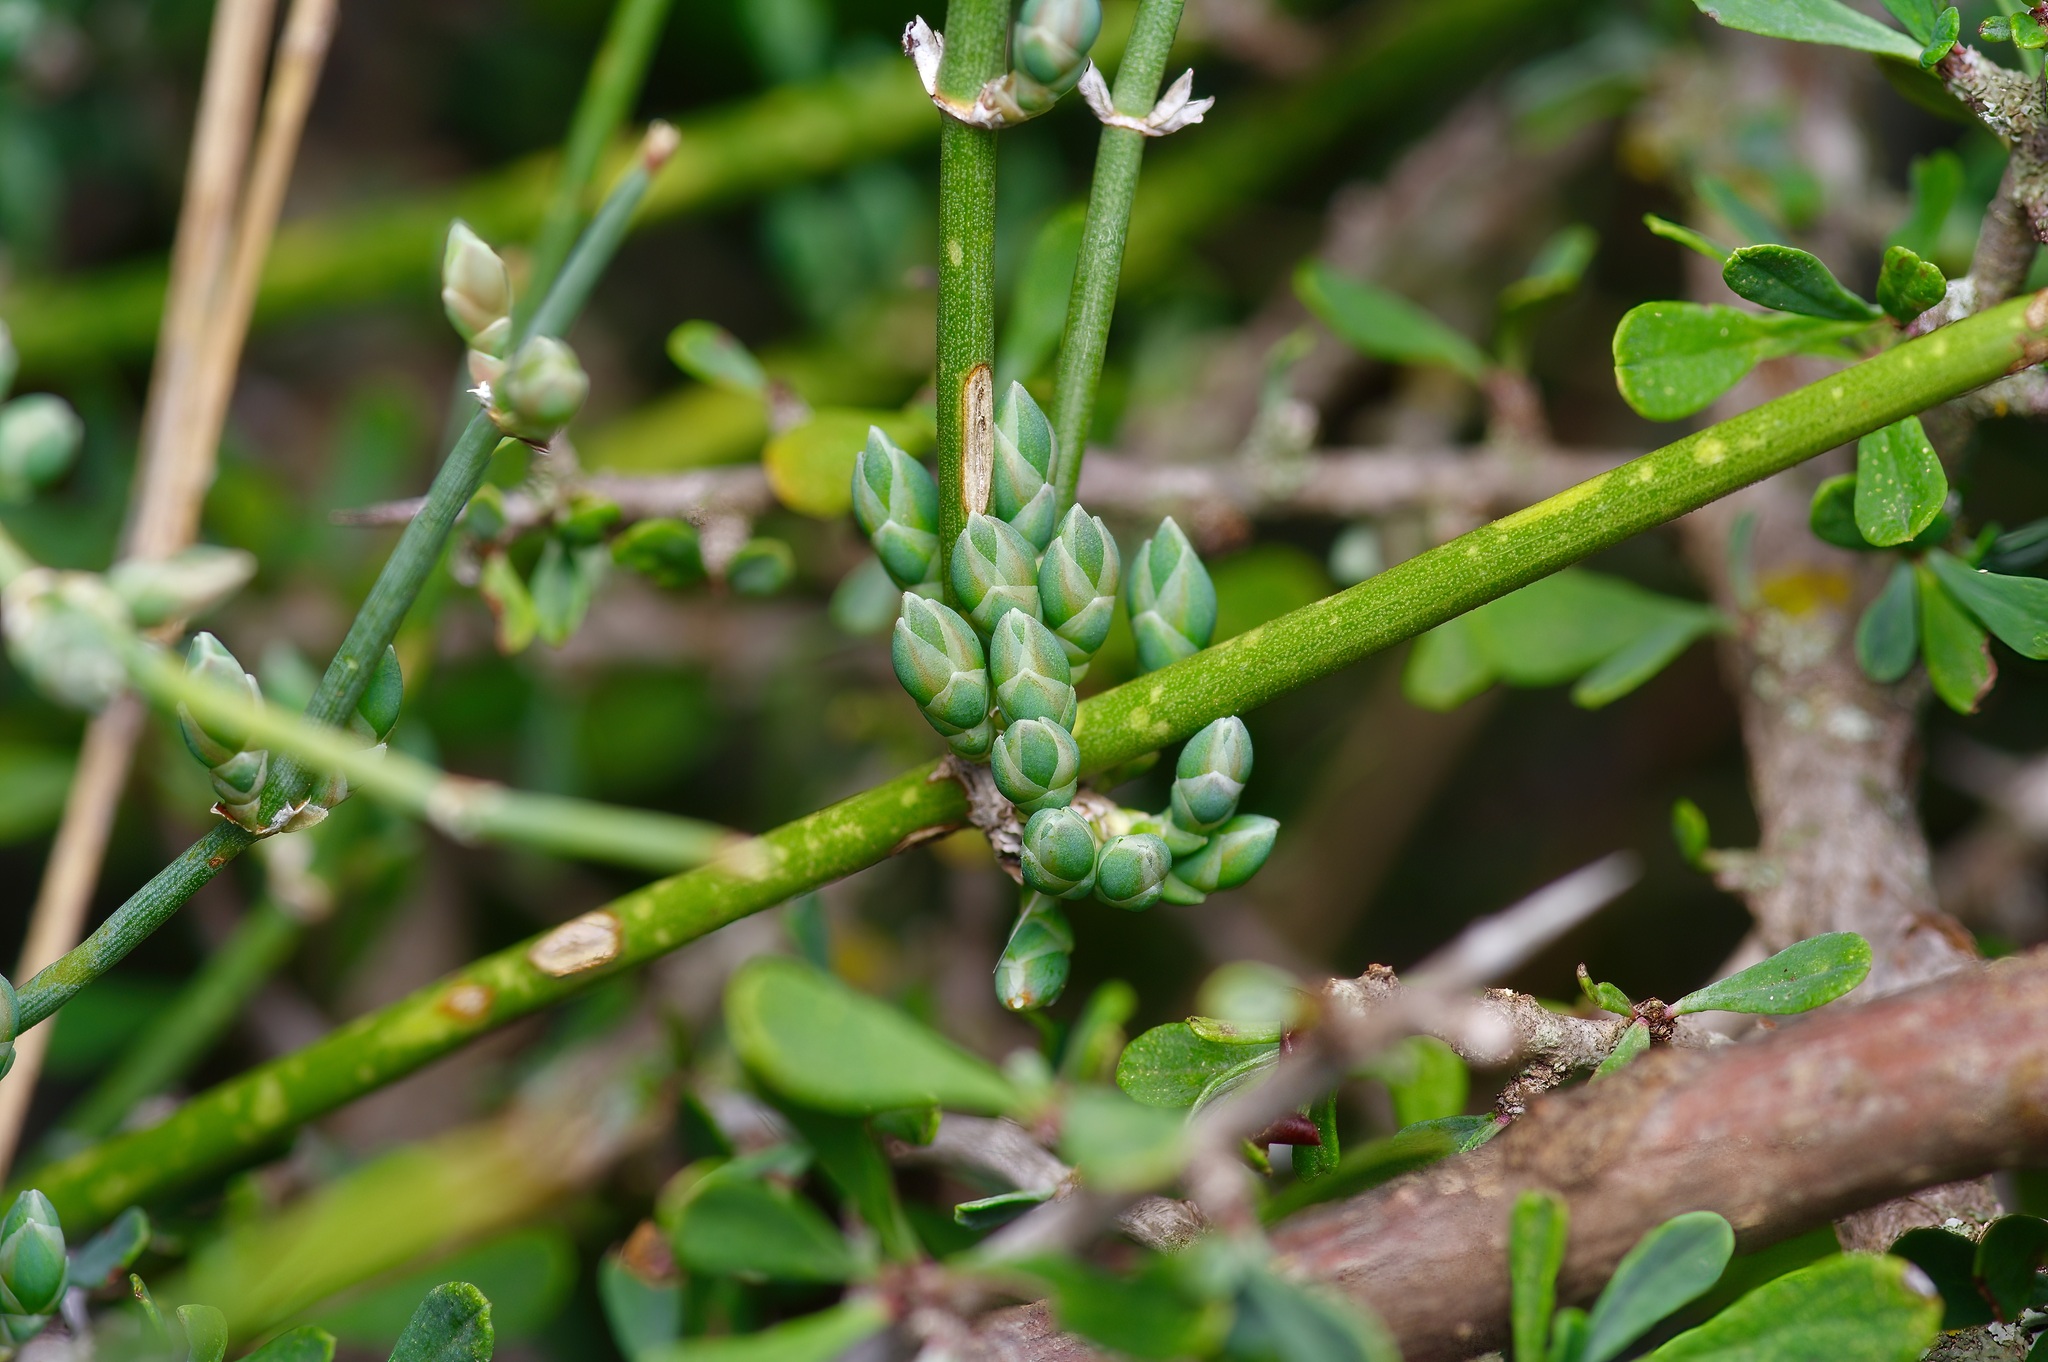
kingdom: Plantae
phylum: Tracheophyta
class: Gnetopsida
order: Ephedrales
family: Ephedraceae
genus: Ephedra
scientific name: Ephedra antisyphilitica
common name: Clipweed
